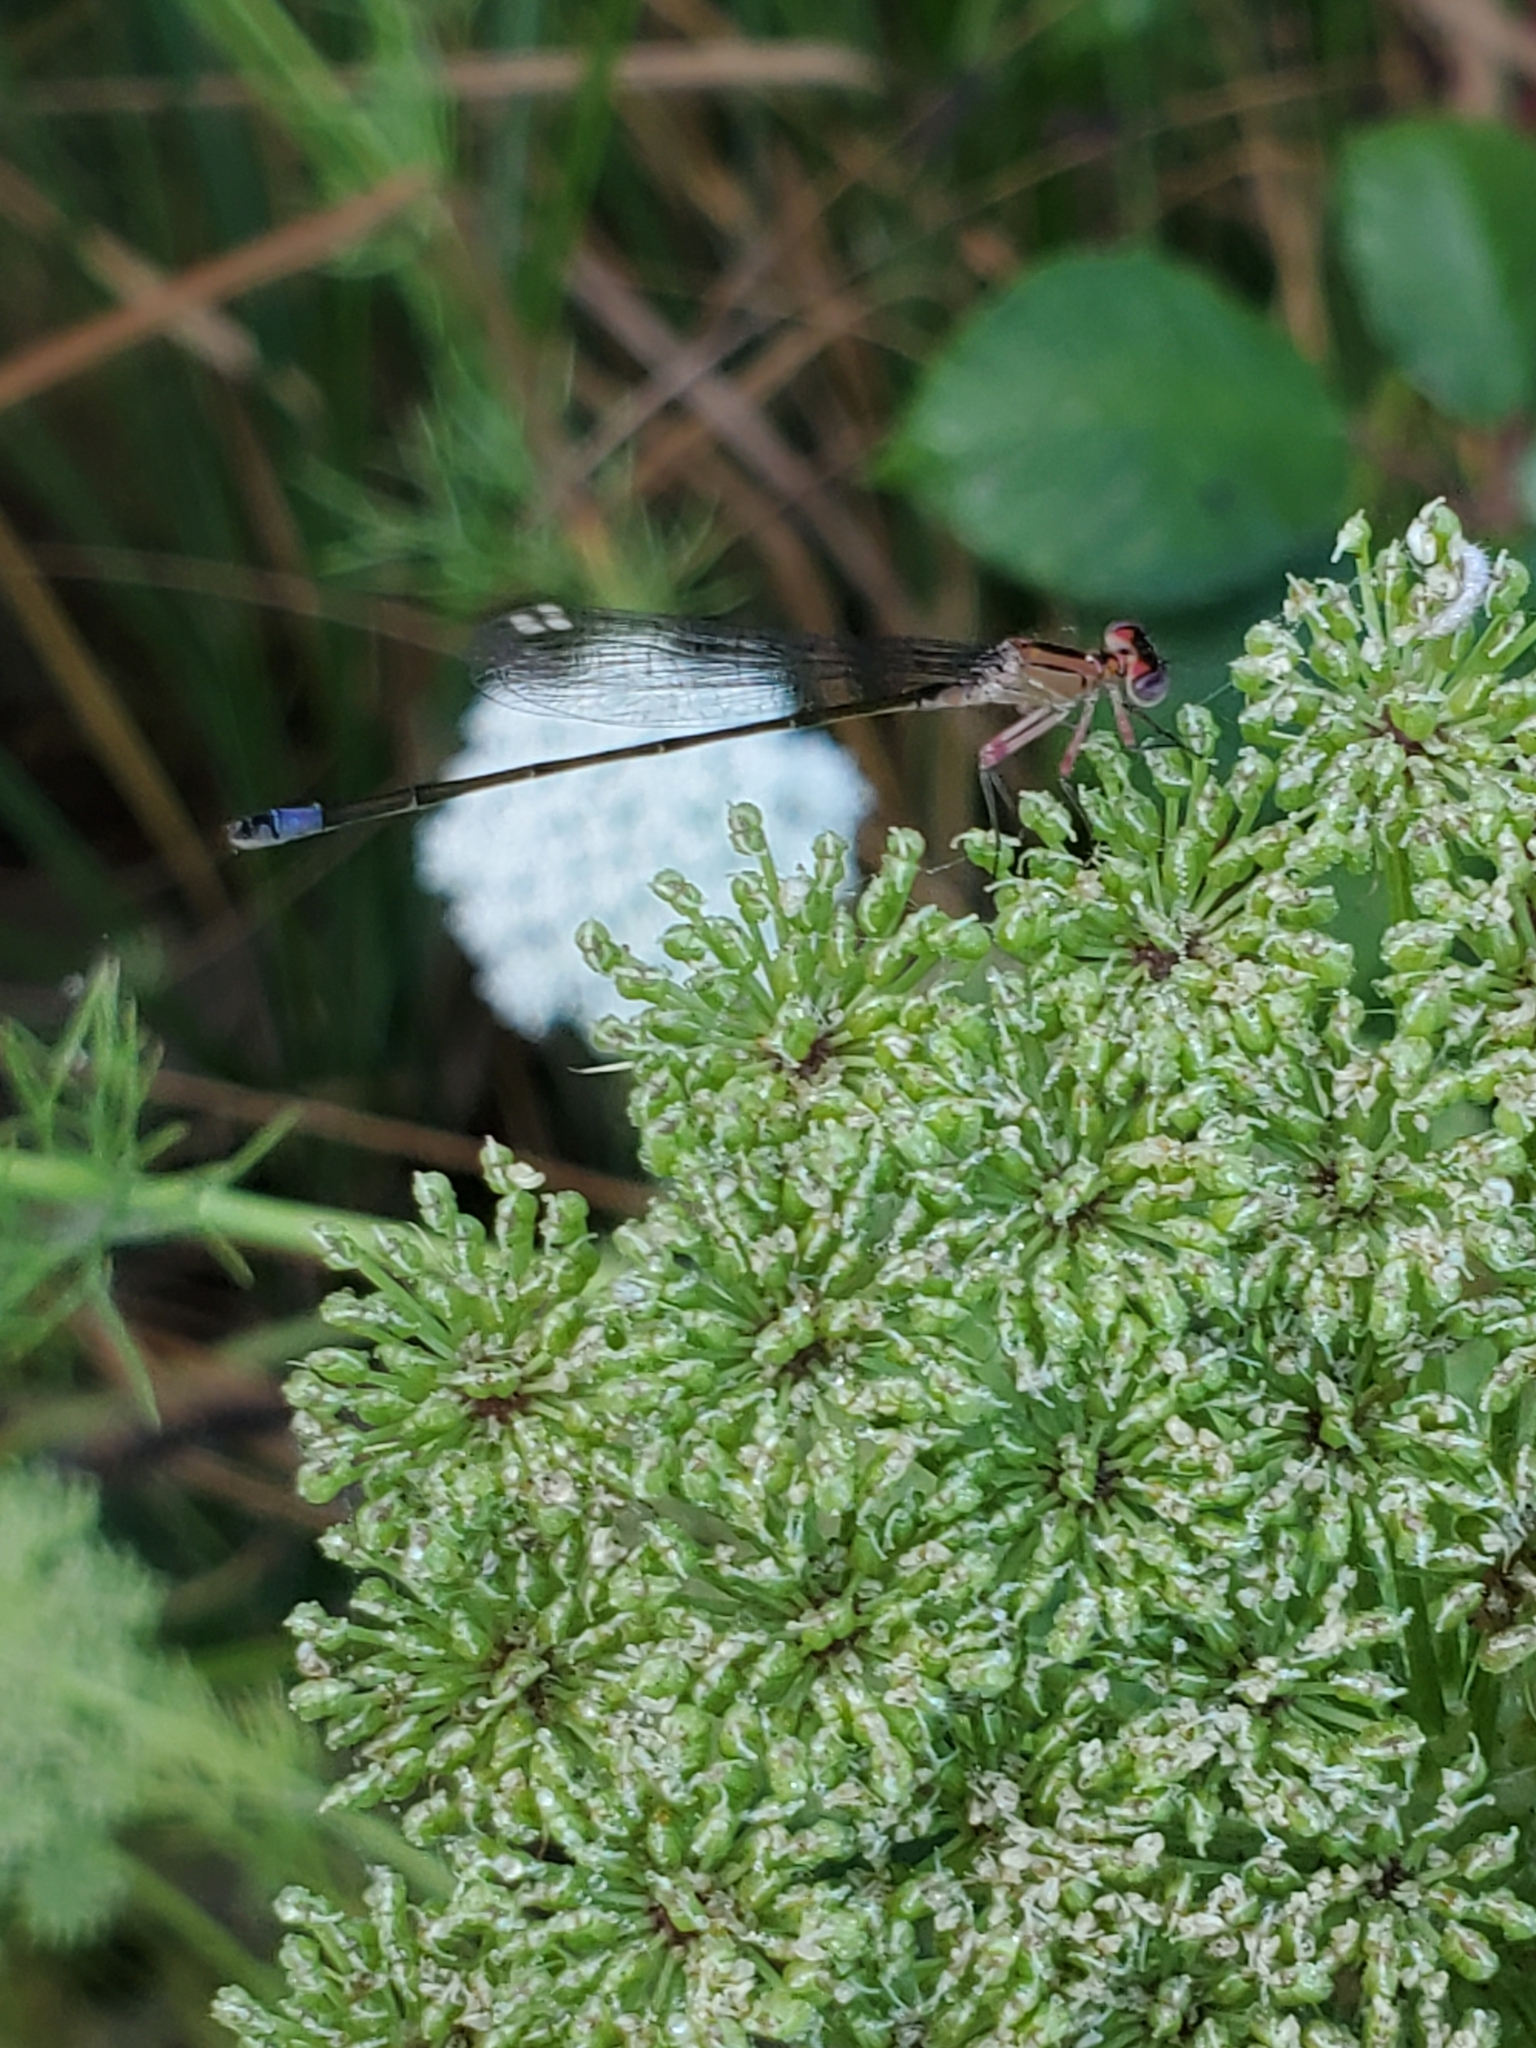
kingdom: Animalia
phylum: Arthropoda
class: Insecta
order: Odonata
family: Coenagrionidae
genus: Ischnura
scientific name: Ischnura cervula
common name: Pacific forktail
